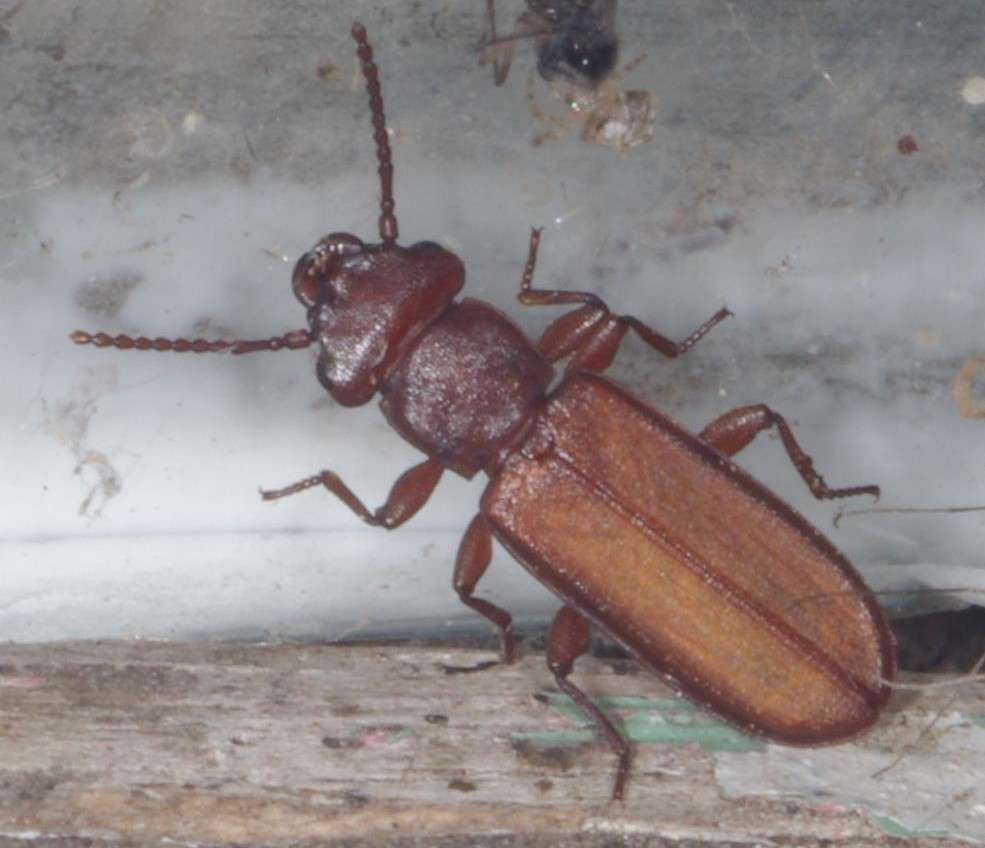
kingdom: Animalia
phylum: Arthropoda
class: Insecta
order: Coleoptera
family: Cucujidae
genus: Platisus
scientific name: Platisus
